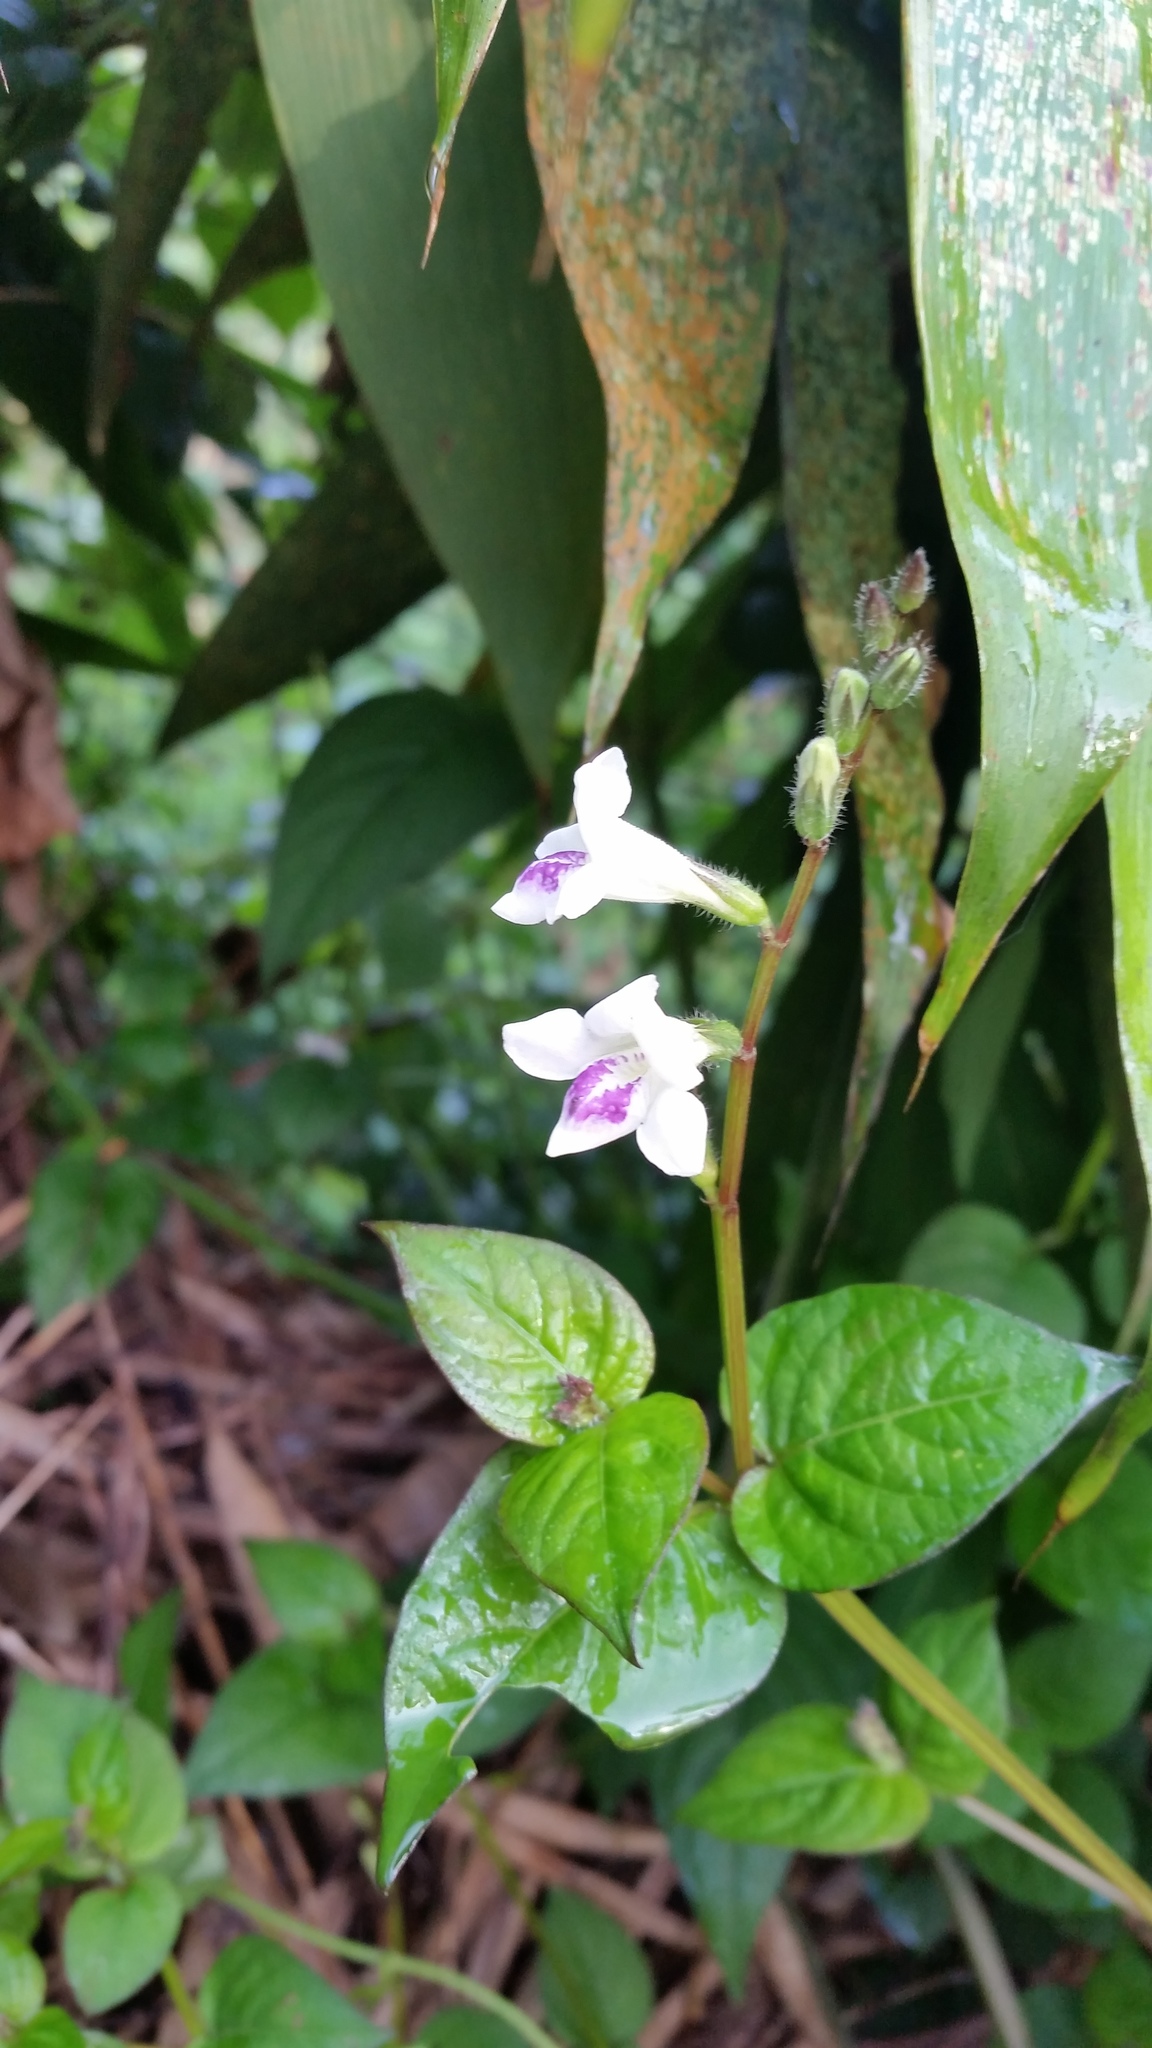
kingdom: Plantae
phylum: Tracheophyta
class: Magnoliopsida
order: Lamiales
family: Acanthaceae
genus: Asystasia
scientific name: Asystasia intrusa
